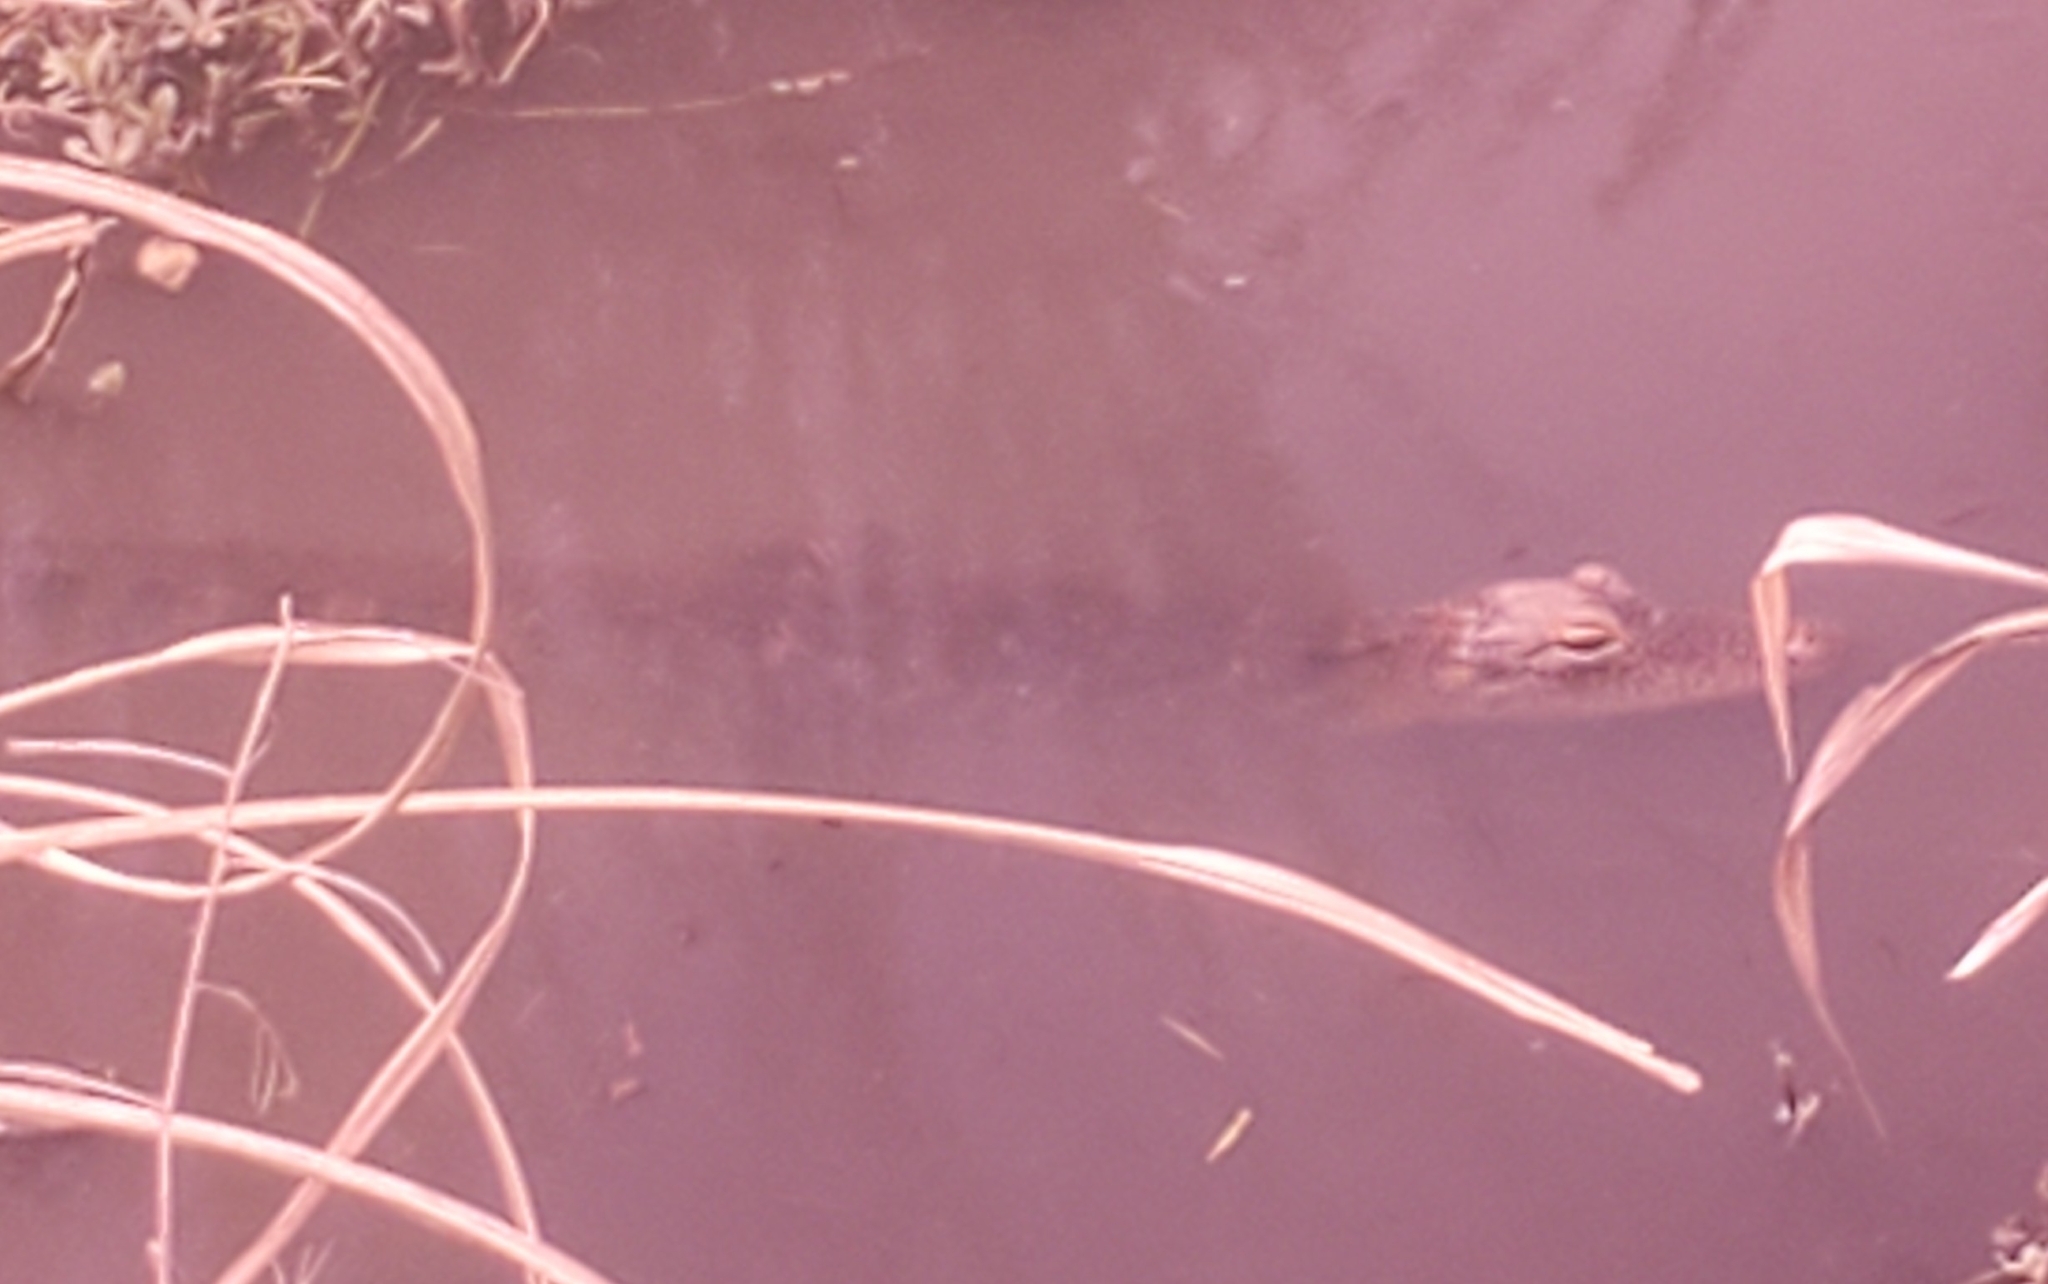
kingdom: Animalia
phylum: Chordata
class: Crocodylia
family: Alligatoridae
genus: Alligator
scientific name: Alligator mississippiensis
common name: American alligator
